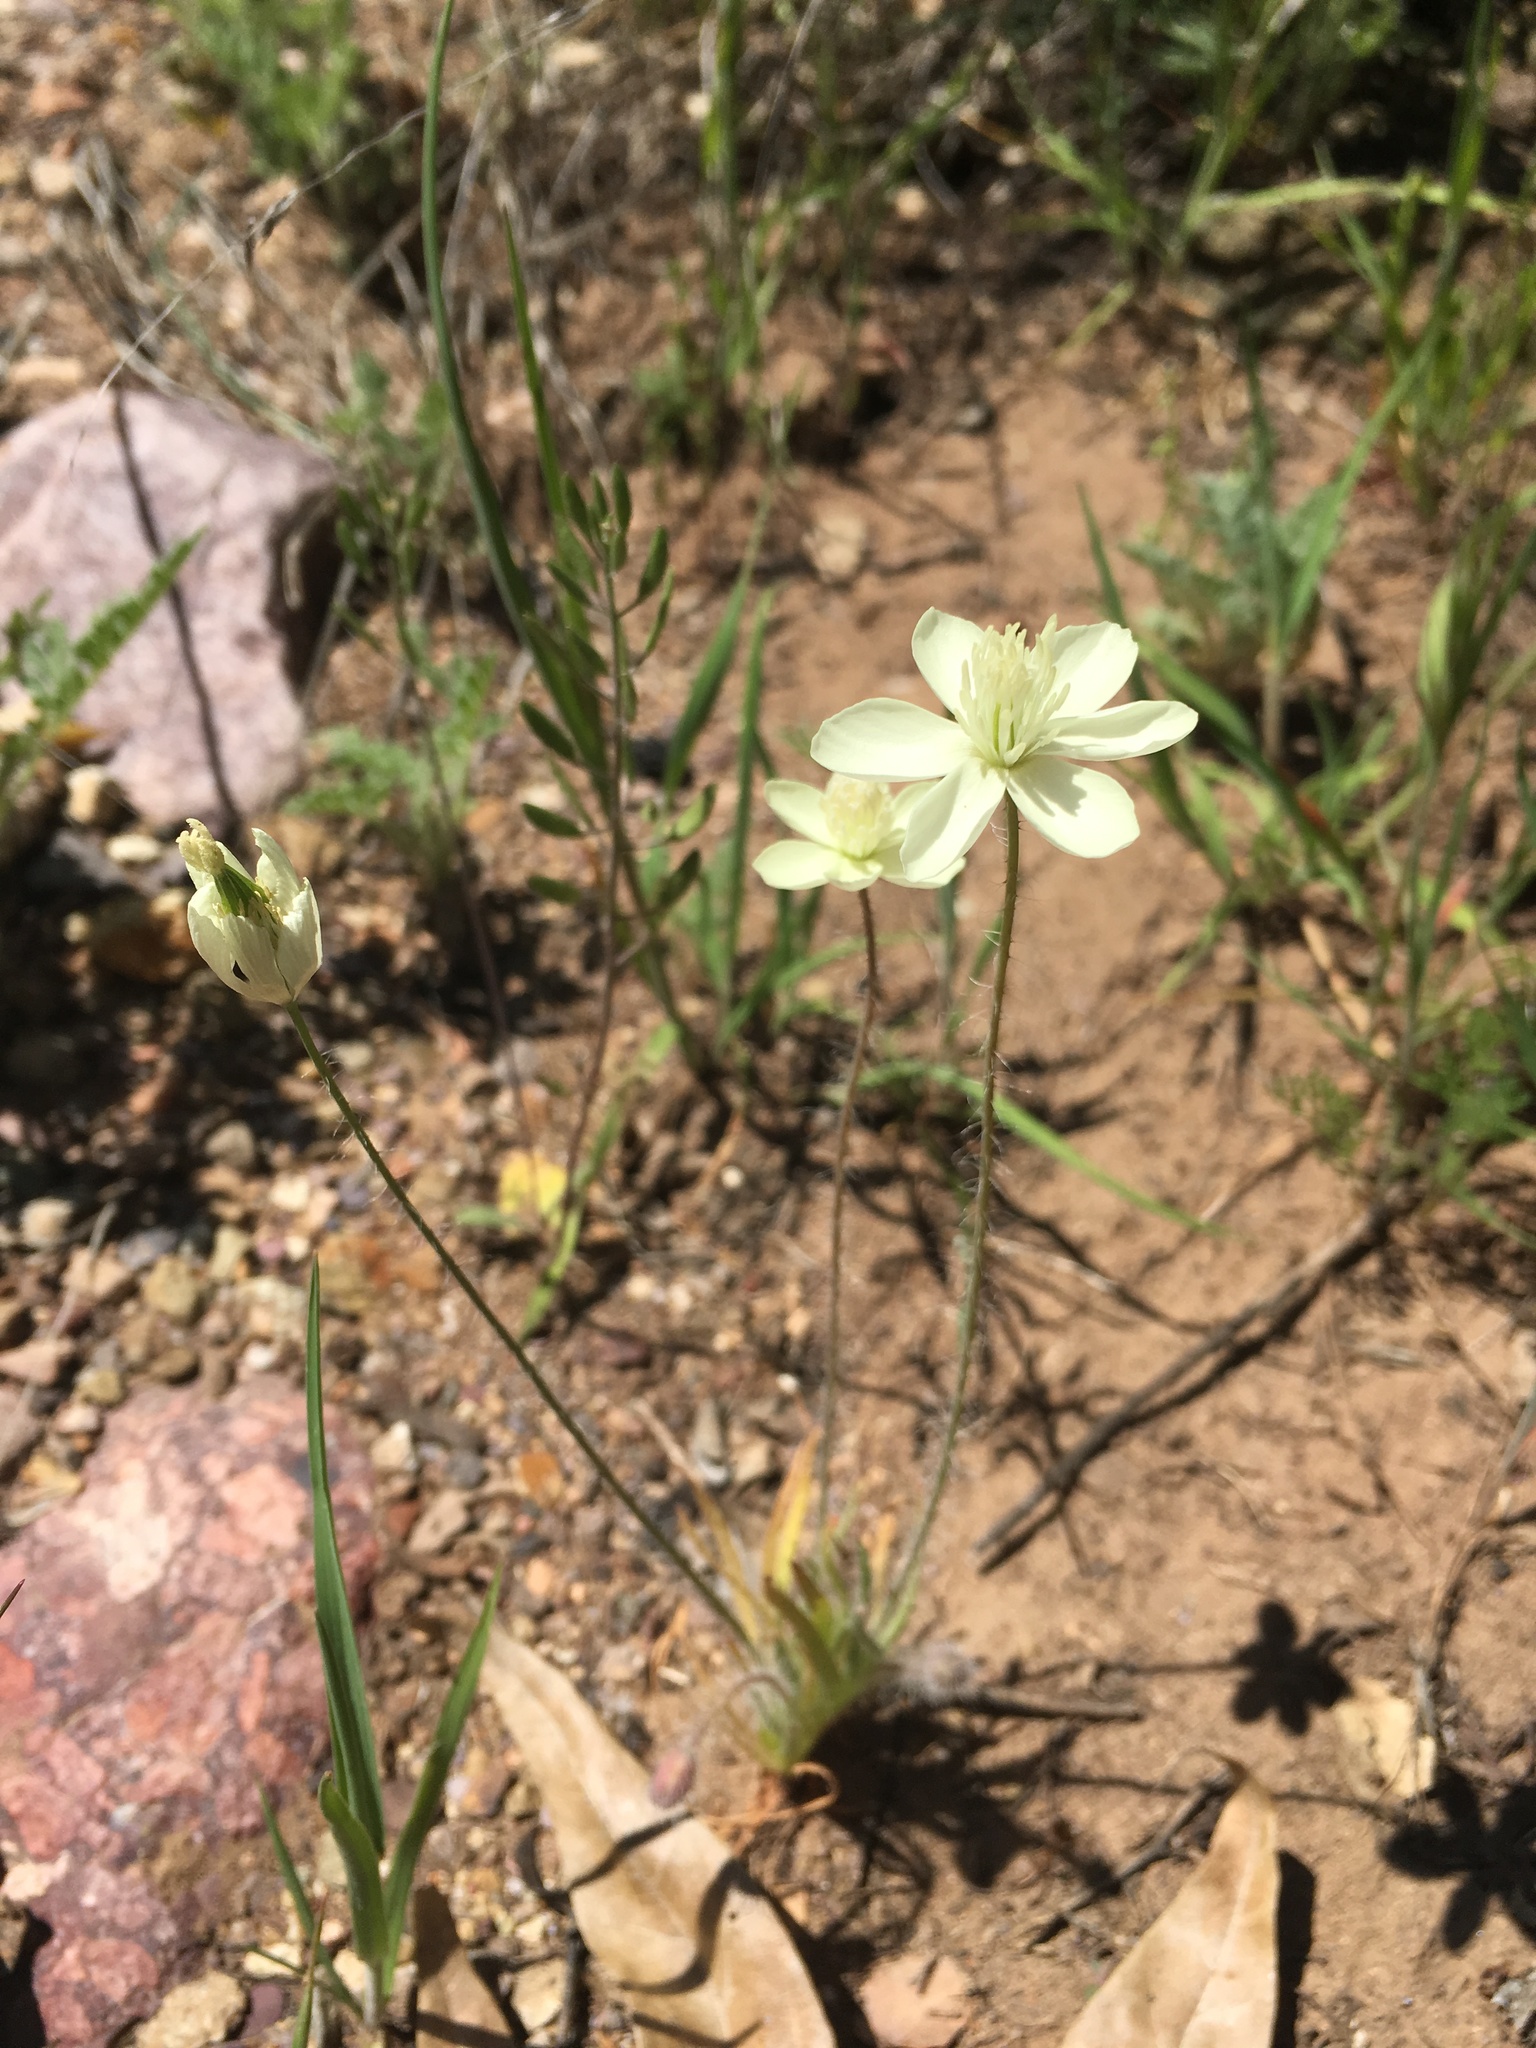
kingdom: Plantae
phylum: Tracheophyta
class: Magnoliopsida
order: Ranunculales
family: Papaveraceae
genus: Platystemon
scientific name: Platystemon californicus
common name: Cream-cups
